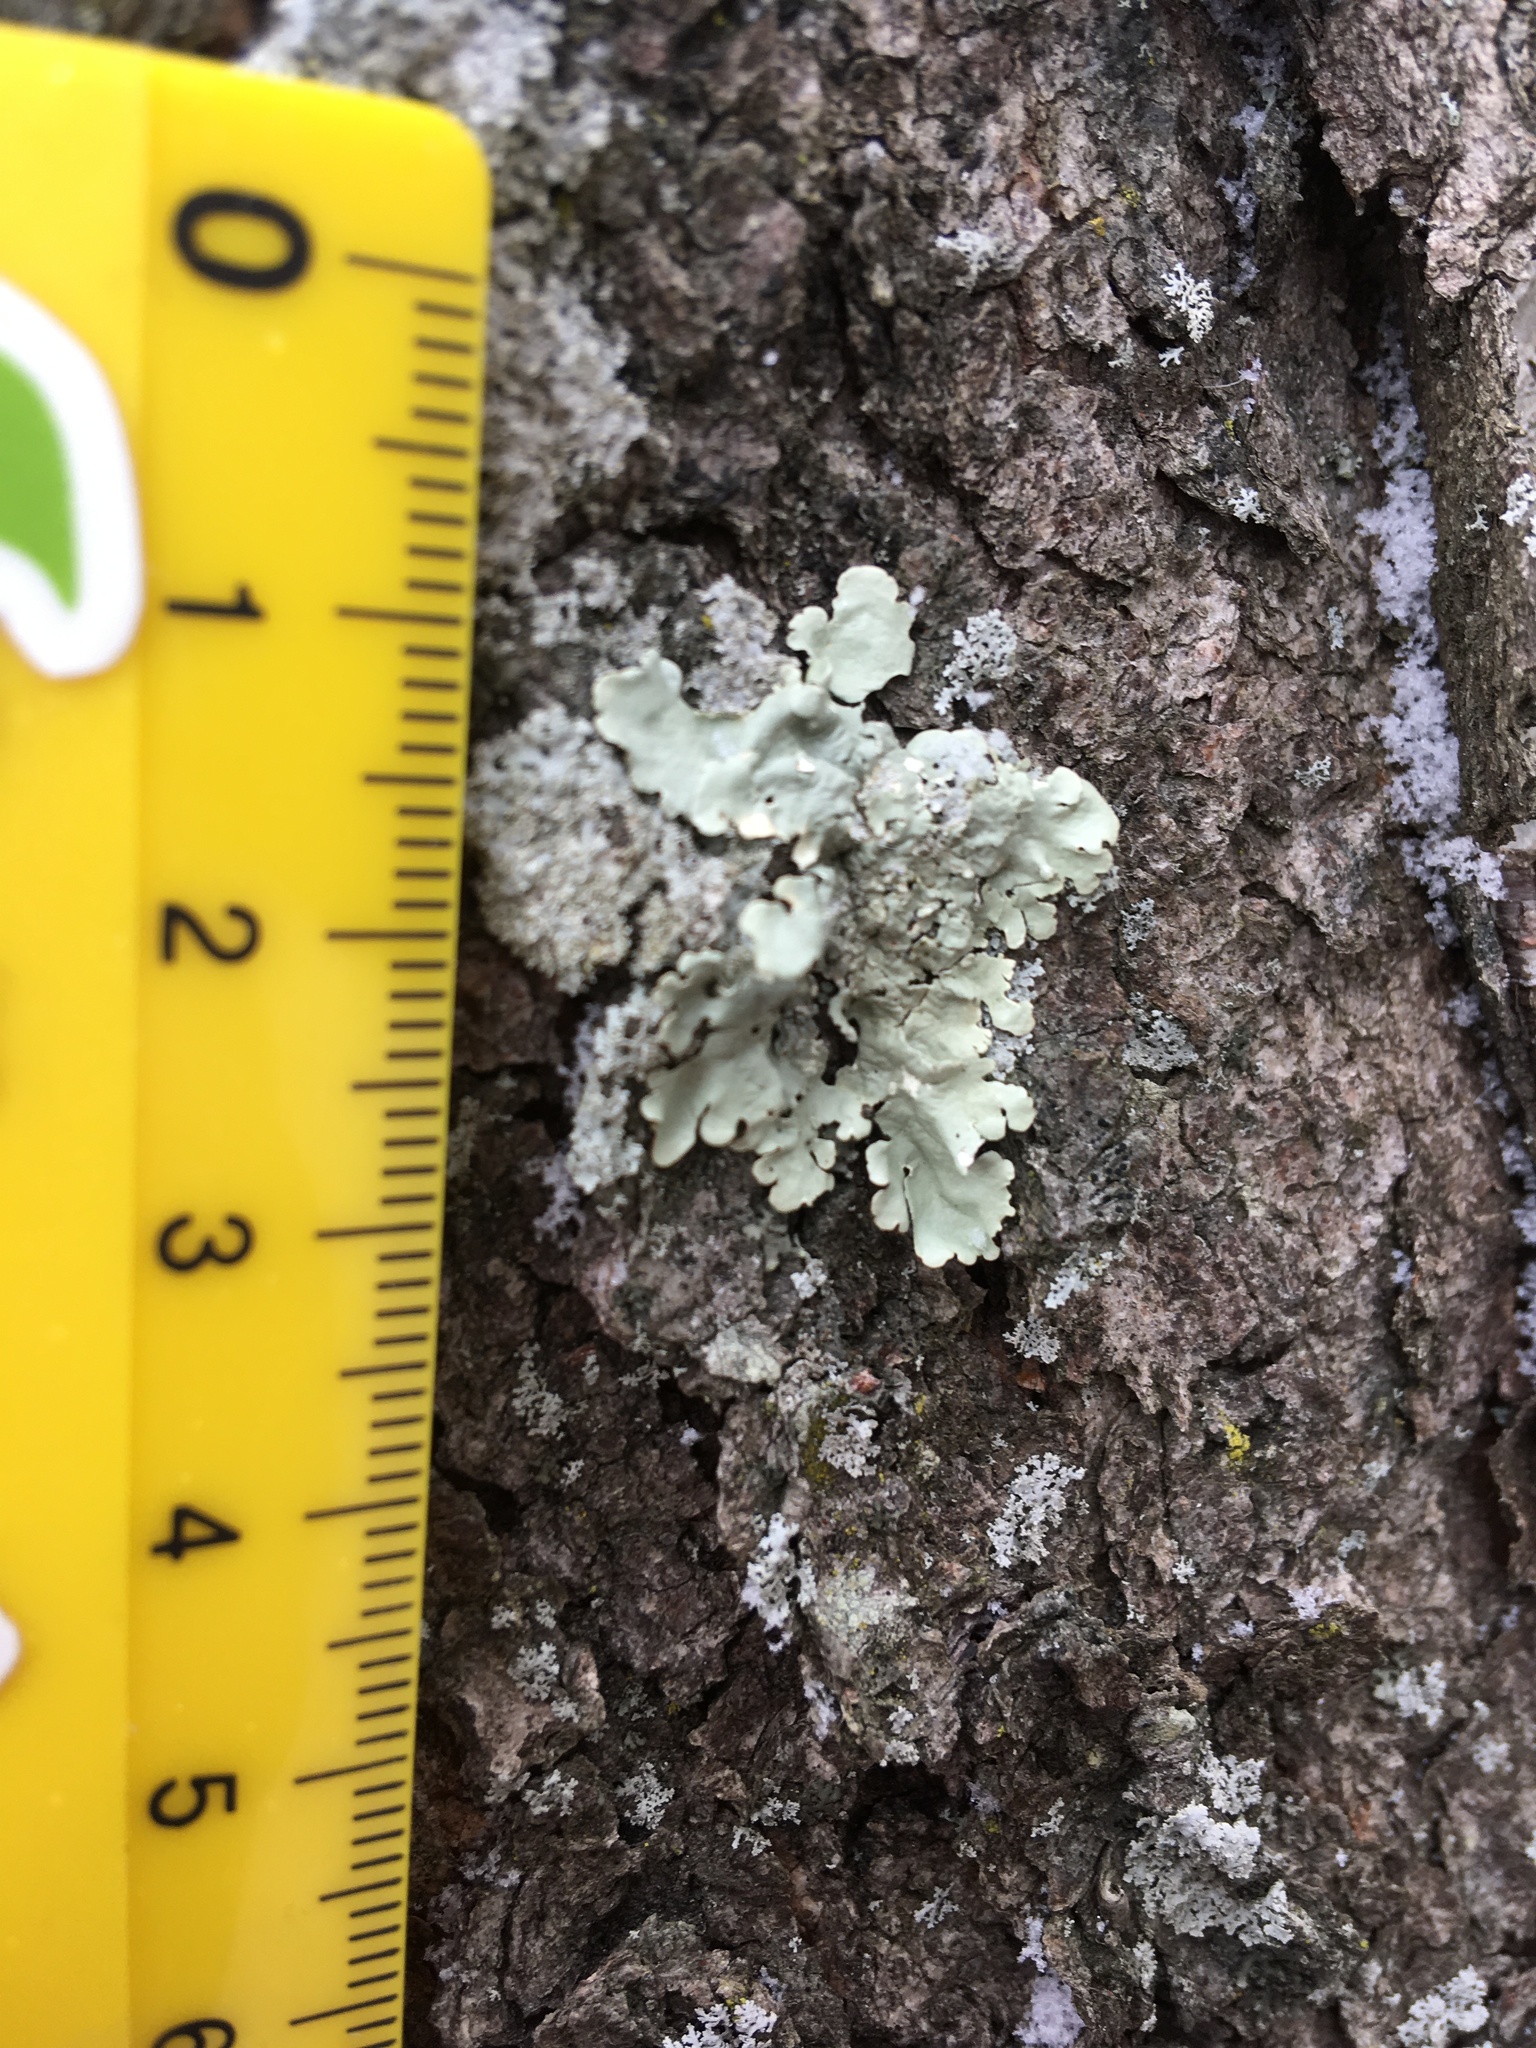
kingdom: Fungi
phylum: Ascomycota
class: Lecanoromycetes
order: Lecanorales
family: Parmeliaceae
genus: Flavoparmelia
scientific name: Flavoparmelia caperata
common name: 40-mile per hour lichen
